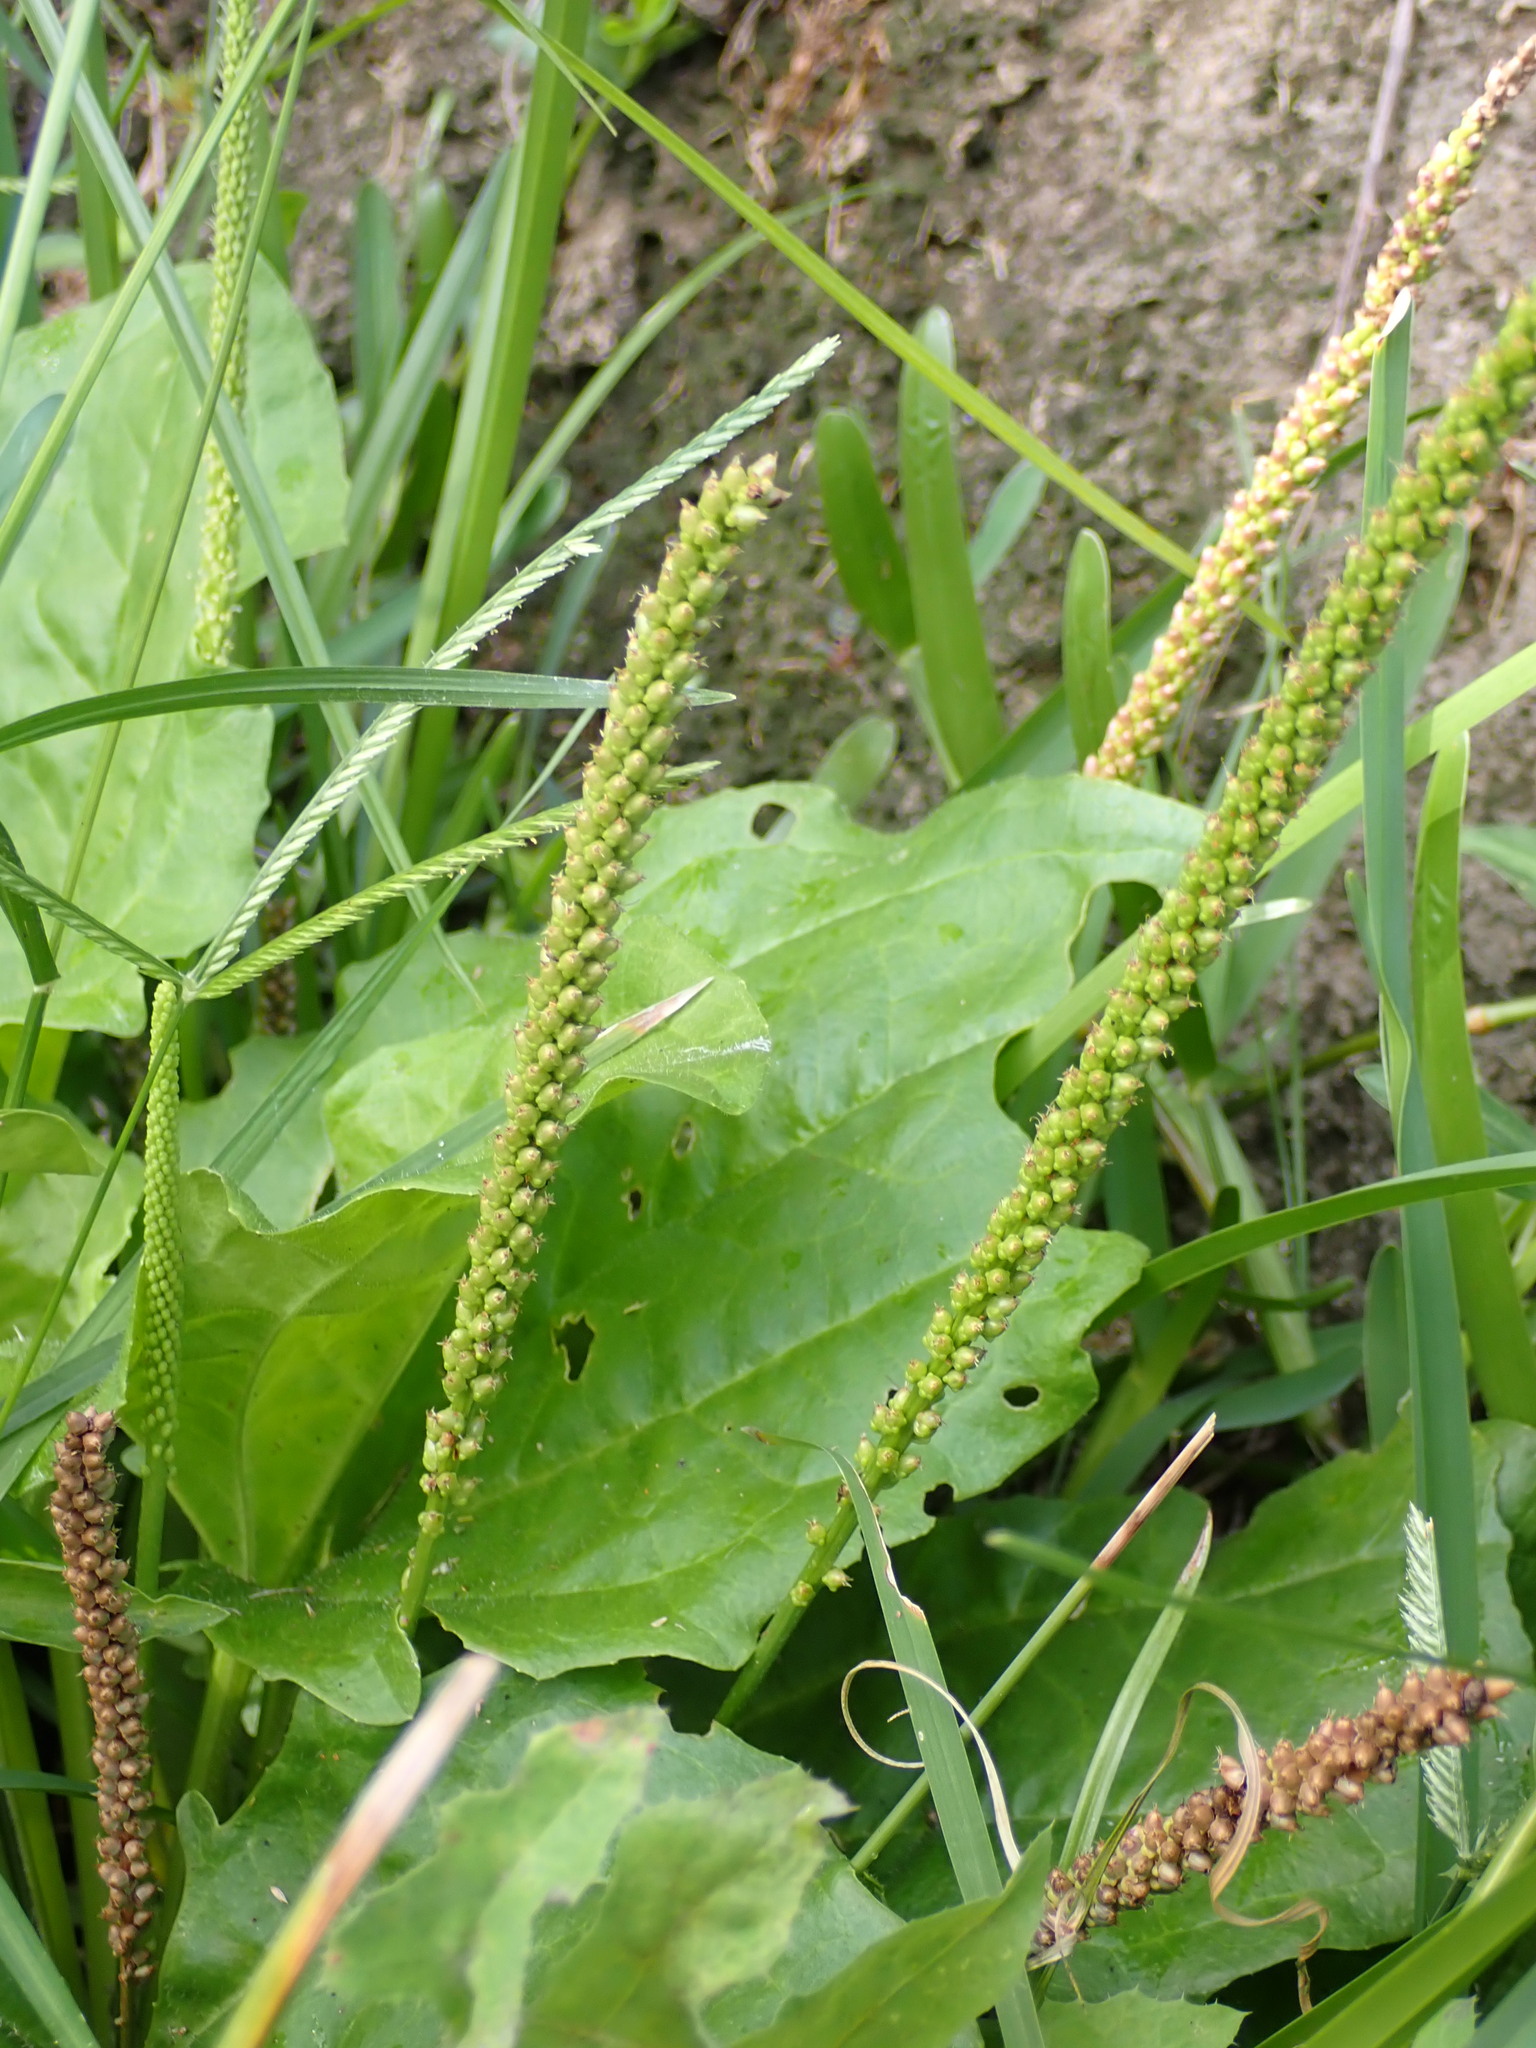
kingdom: Plantae
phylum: Tracheophyta
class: Magnoliopsida
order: Lamiales
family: Plantaginaceae
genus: Plantago
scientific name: Plantago major
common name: Common plantain
